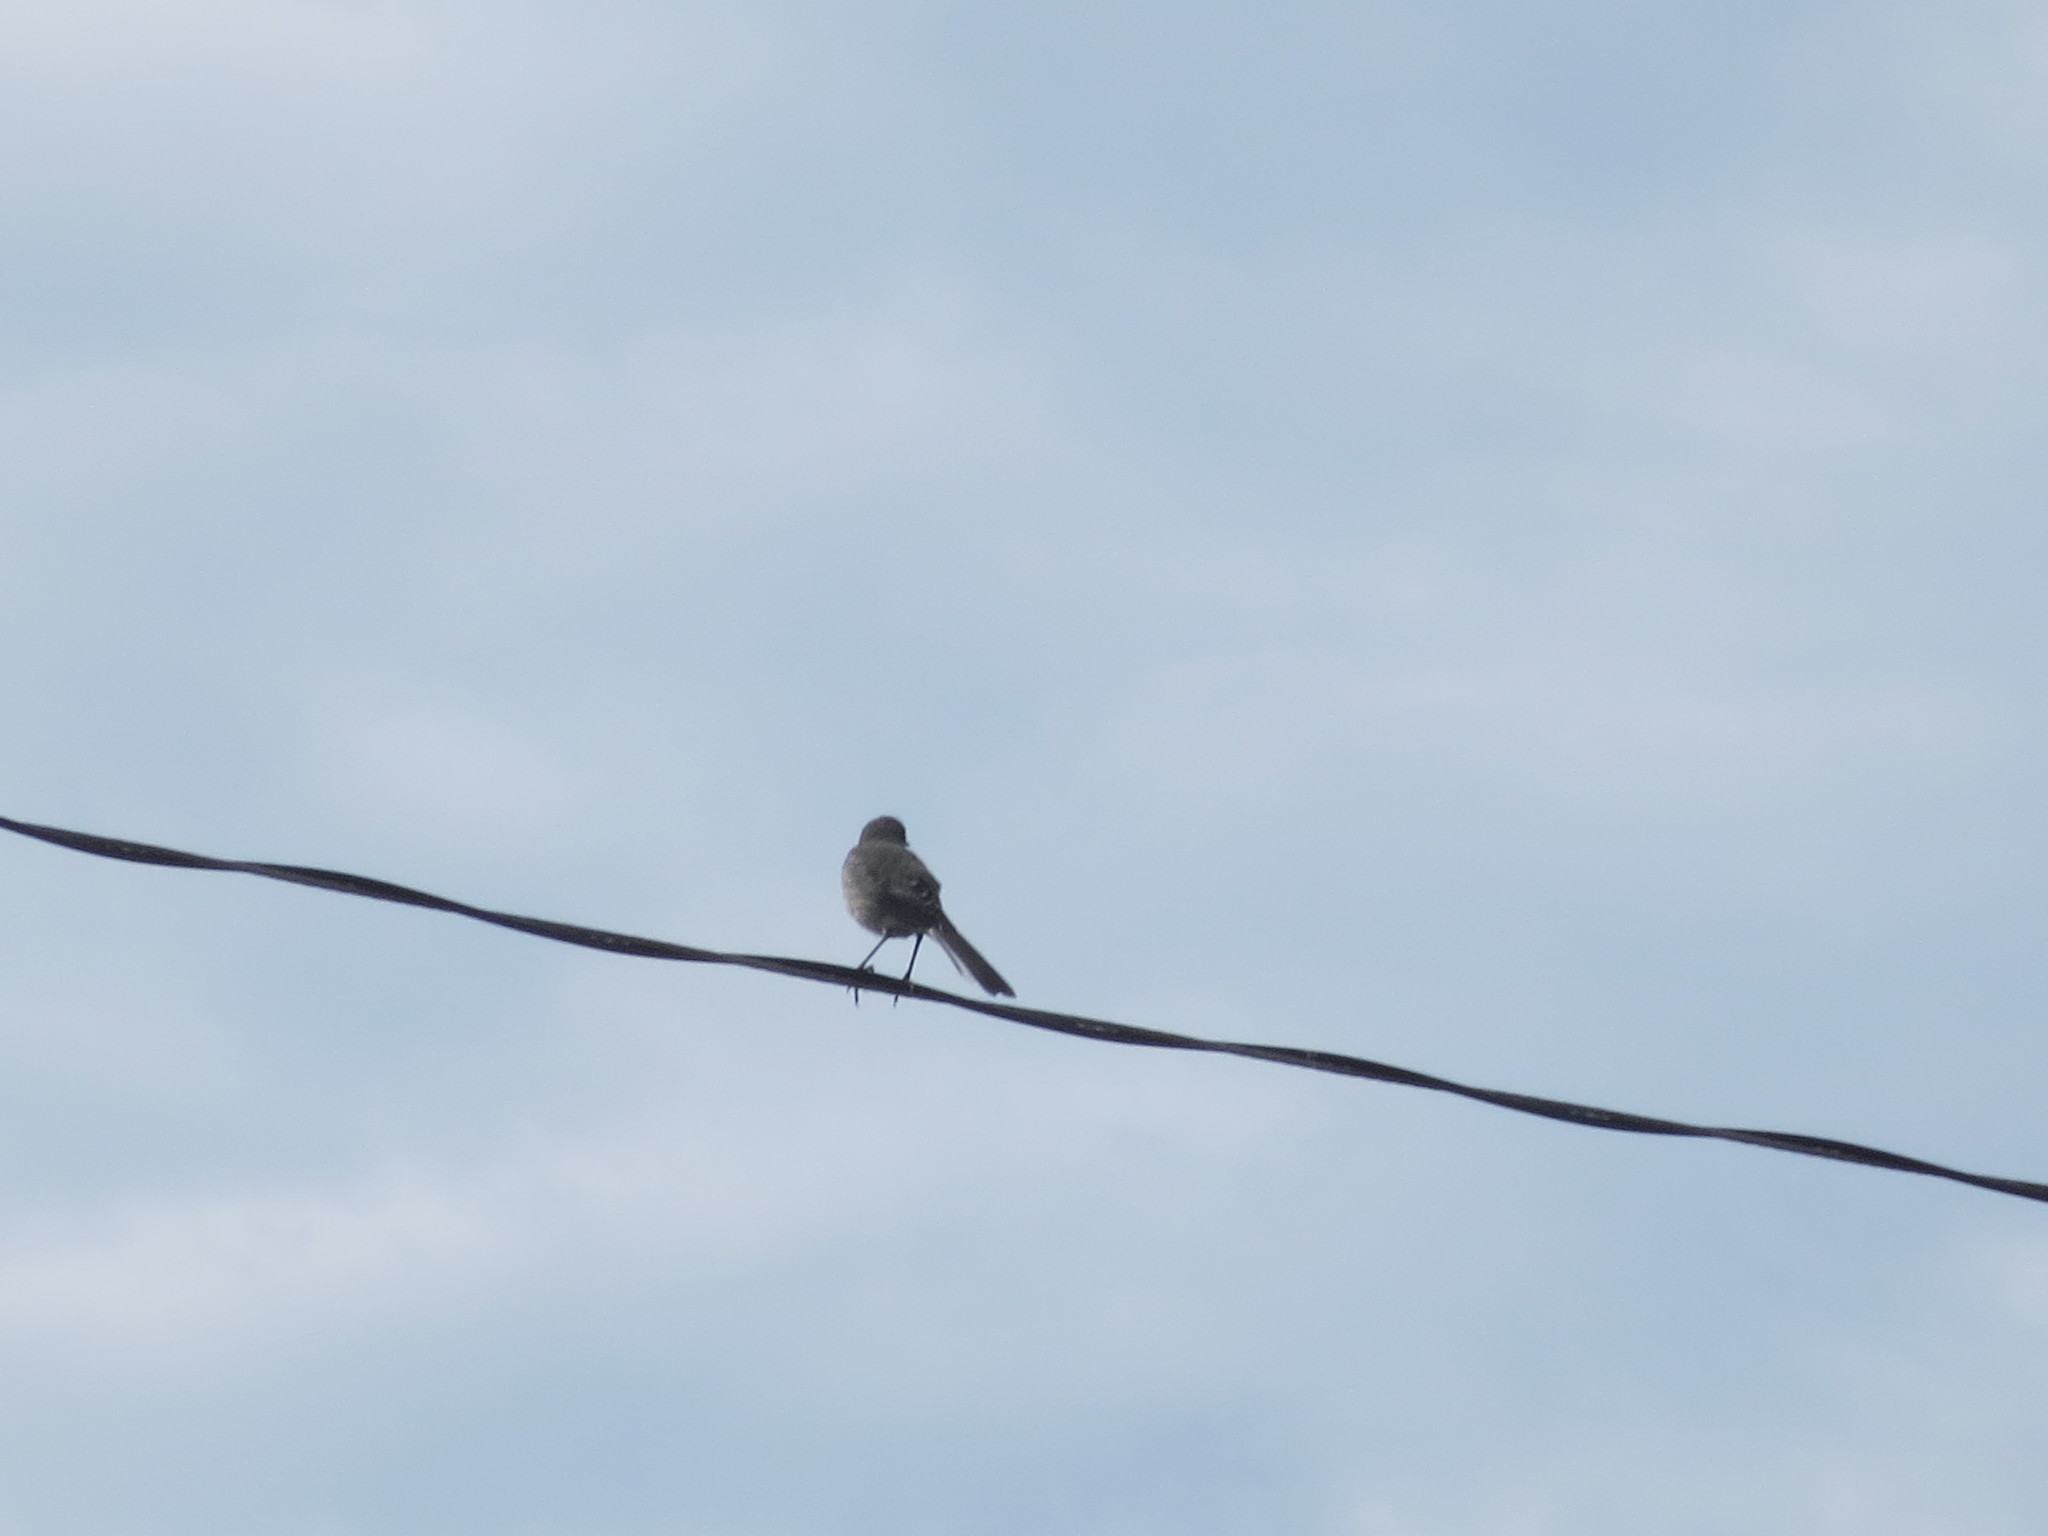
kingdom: Animalia
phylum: Chordata
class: Aves
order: Passeriformes
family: Mimidae
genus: Mimus
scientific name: Mimus polyglottos
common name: Northern mockingbird
